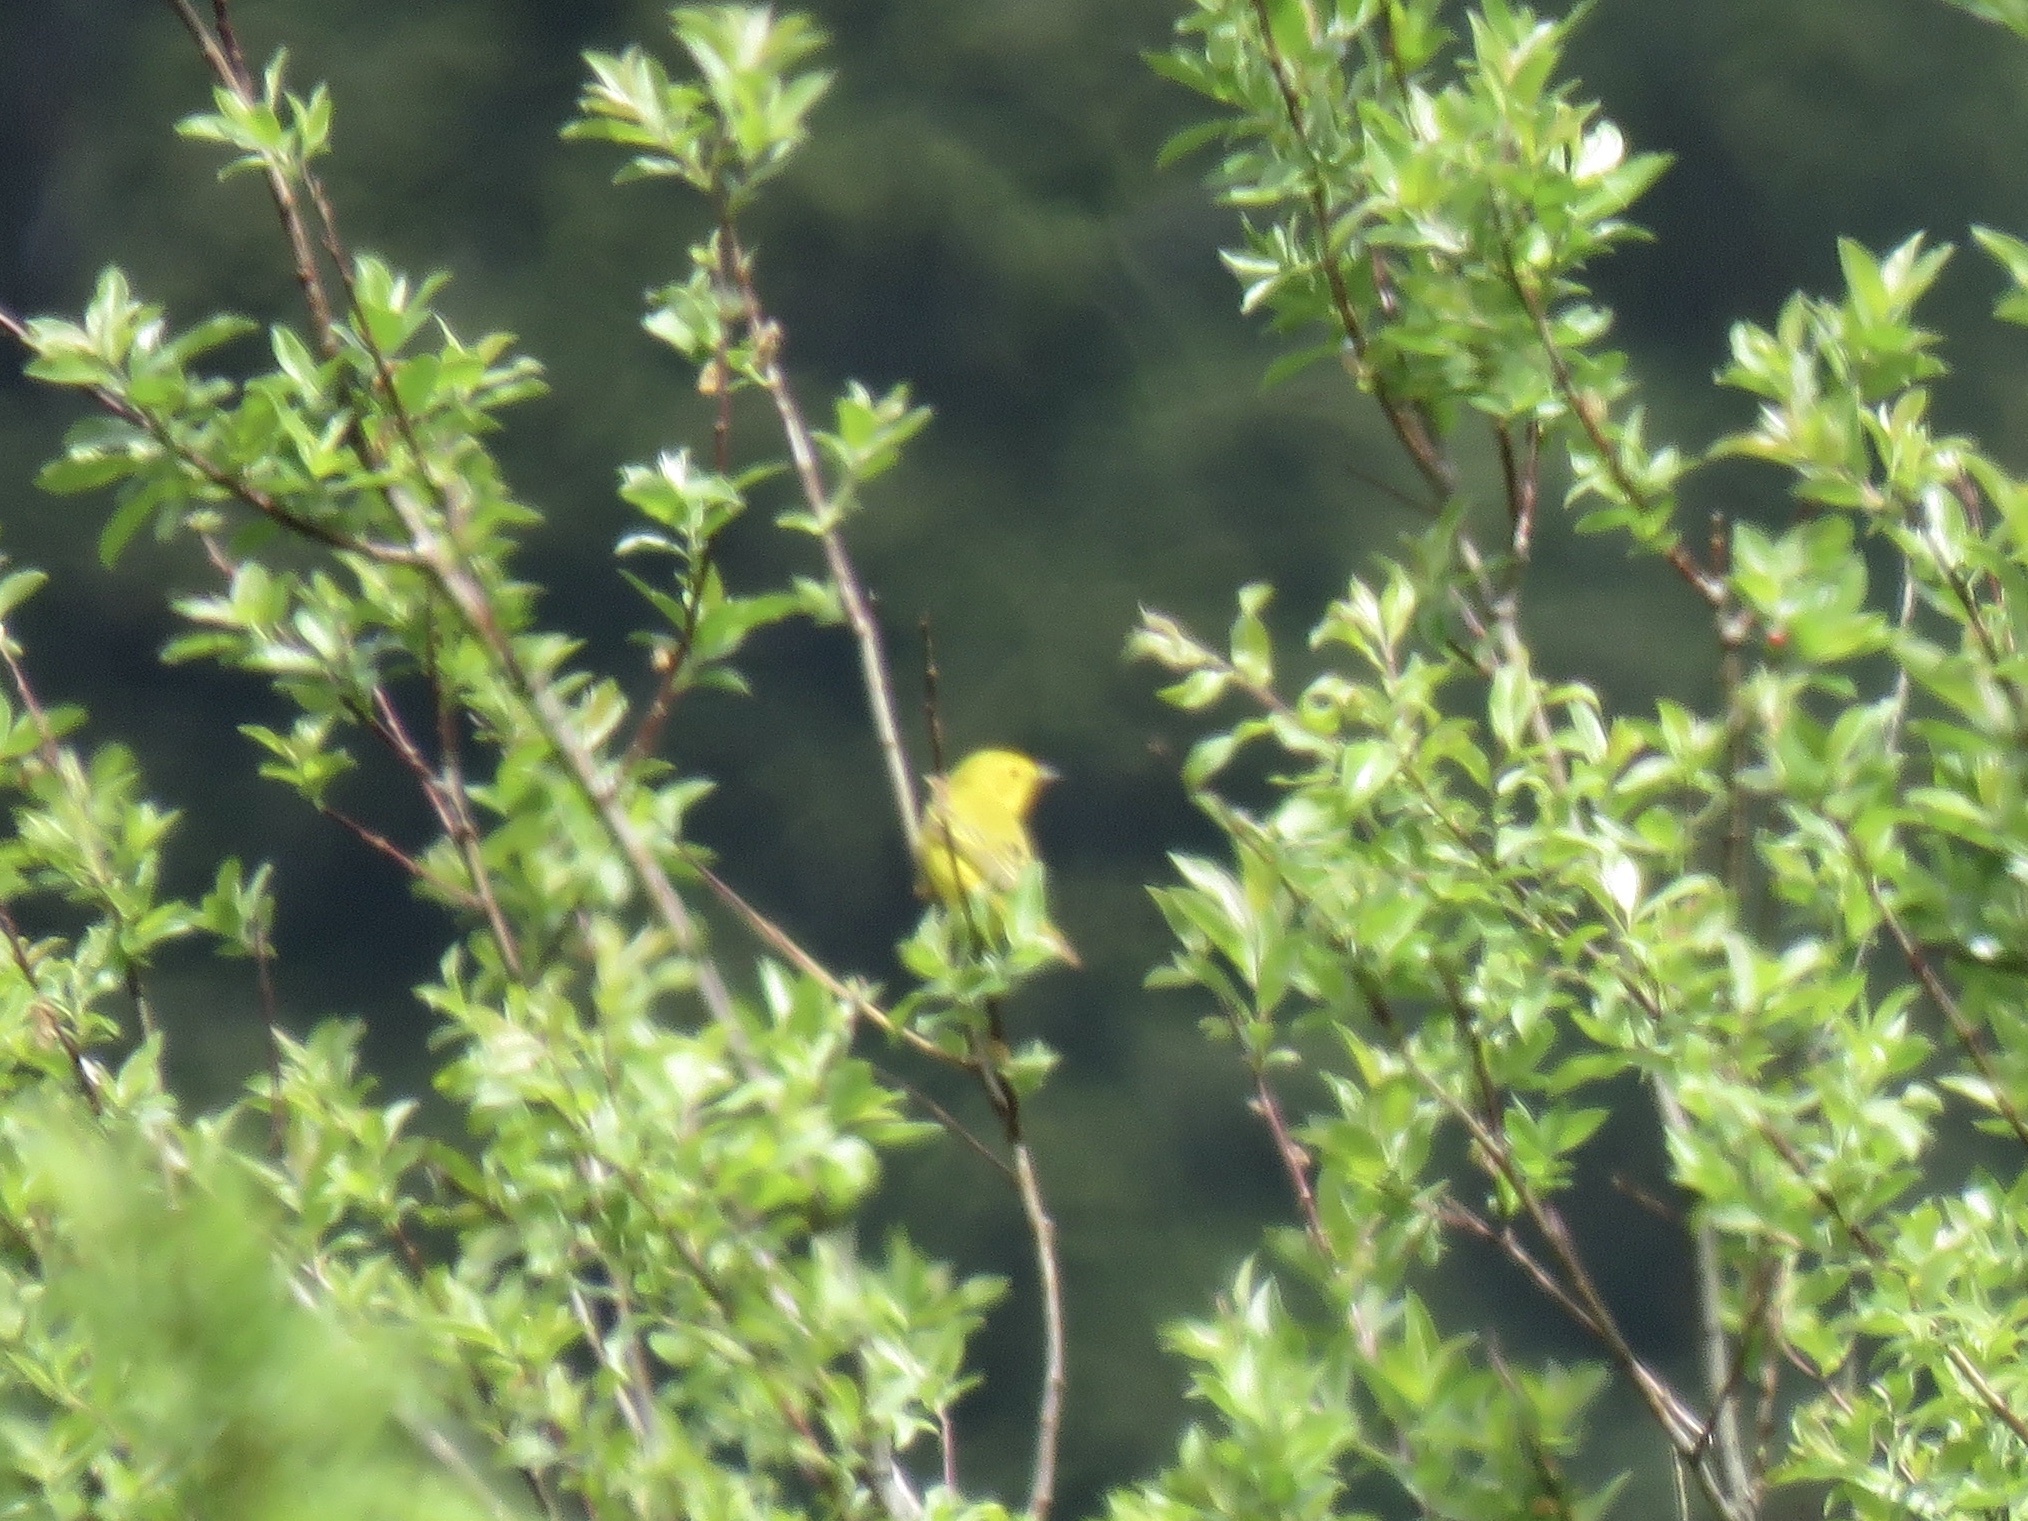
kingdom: Animalia
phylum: Chordata
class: Aves
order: Passeriformes
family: Parulidae
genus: Setophaga
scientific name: Setophaga petechia
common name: Yellow warbler
